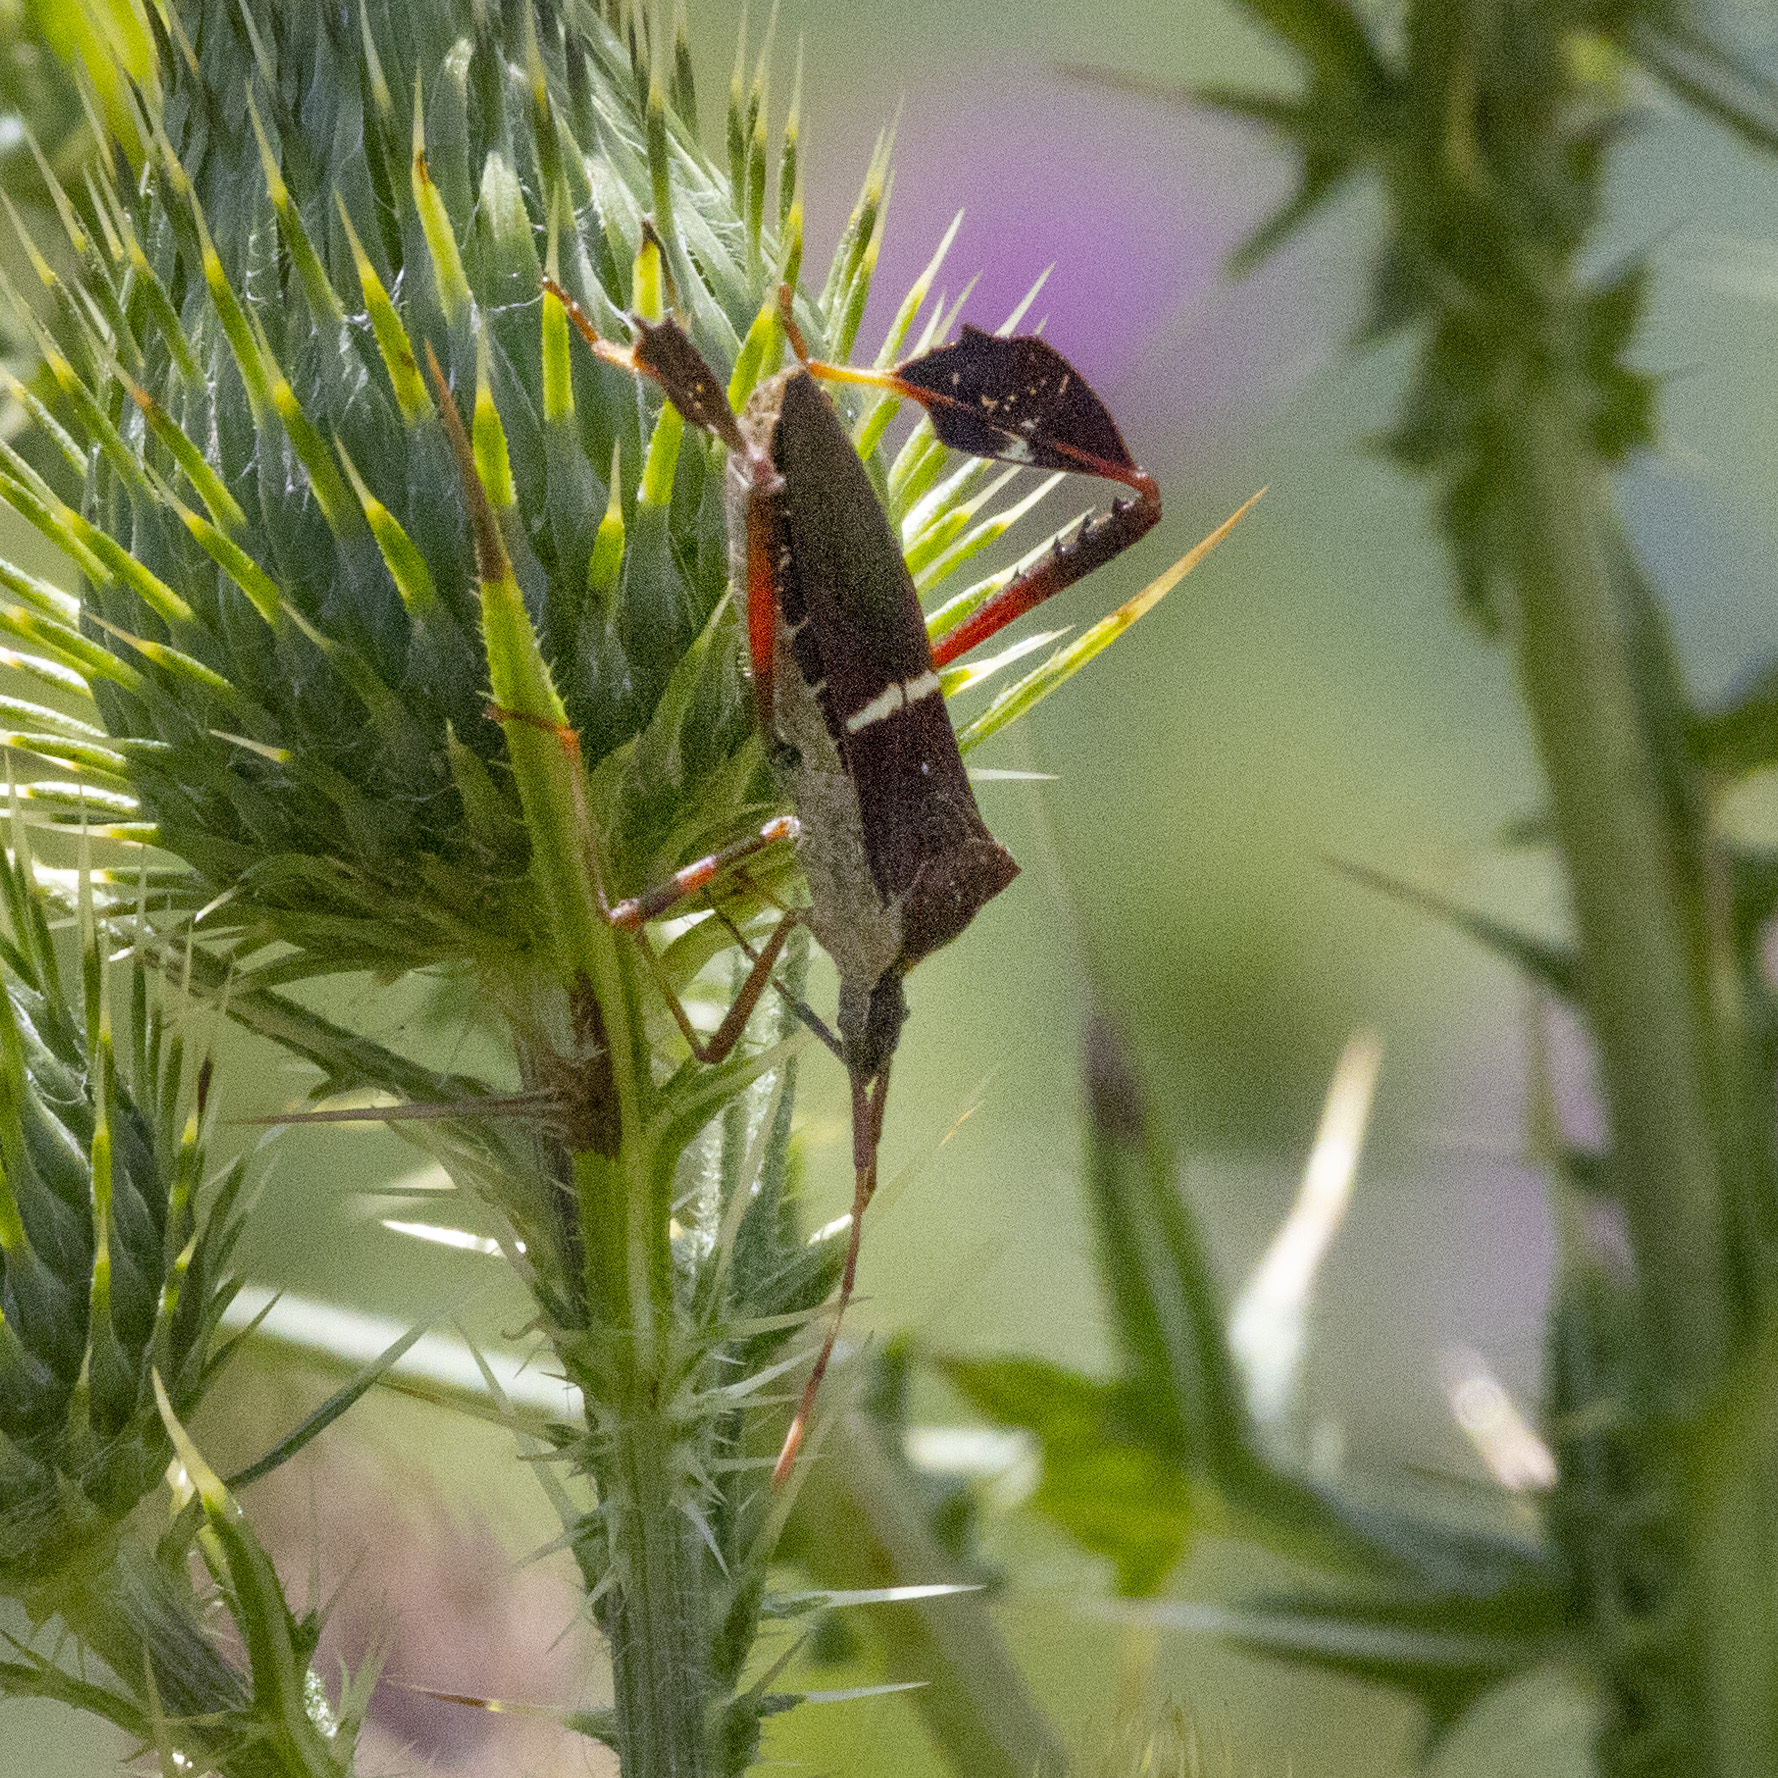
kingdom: Animalia
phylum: Arthropoda
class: Insecta
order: Hemiptera
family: Coreidae
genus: Leptoglossus
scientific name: Leptoglossus phyllopus
